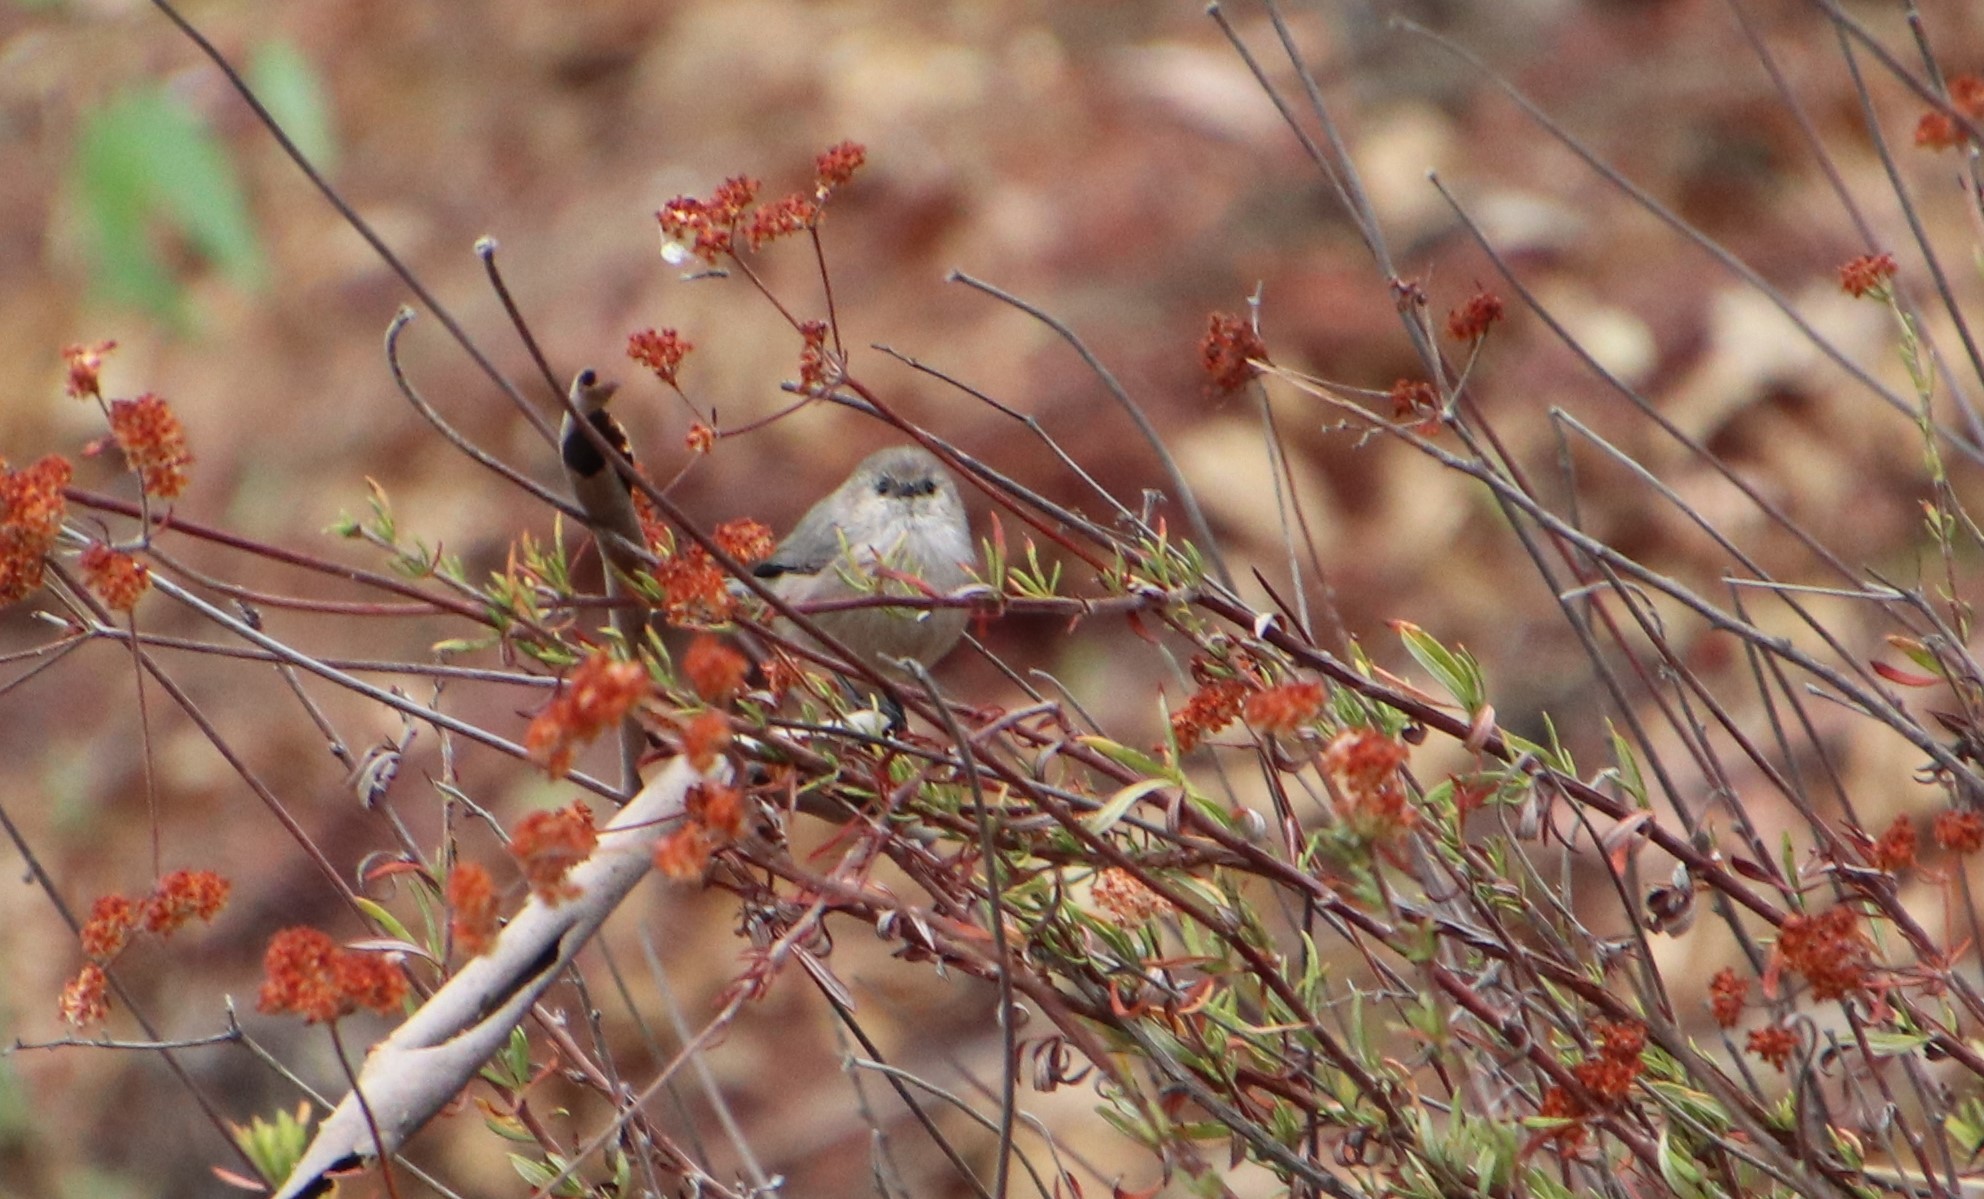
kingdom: Animalia
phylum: Chordata
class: Aves
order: Passeriformes
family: Aegithalidae
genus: Psaltriparus
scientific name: Psaltriparus minimus
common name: American bushtit
